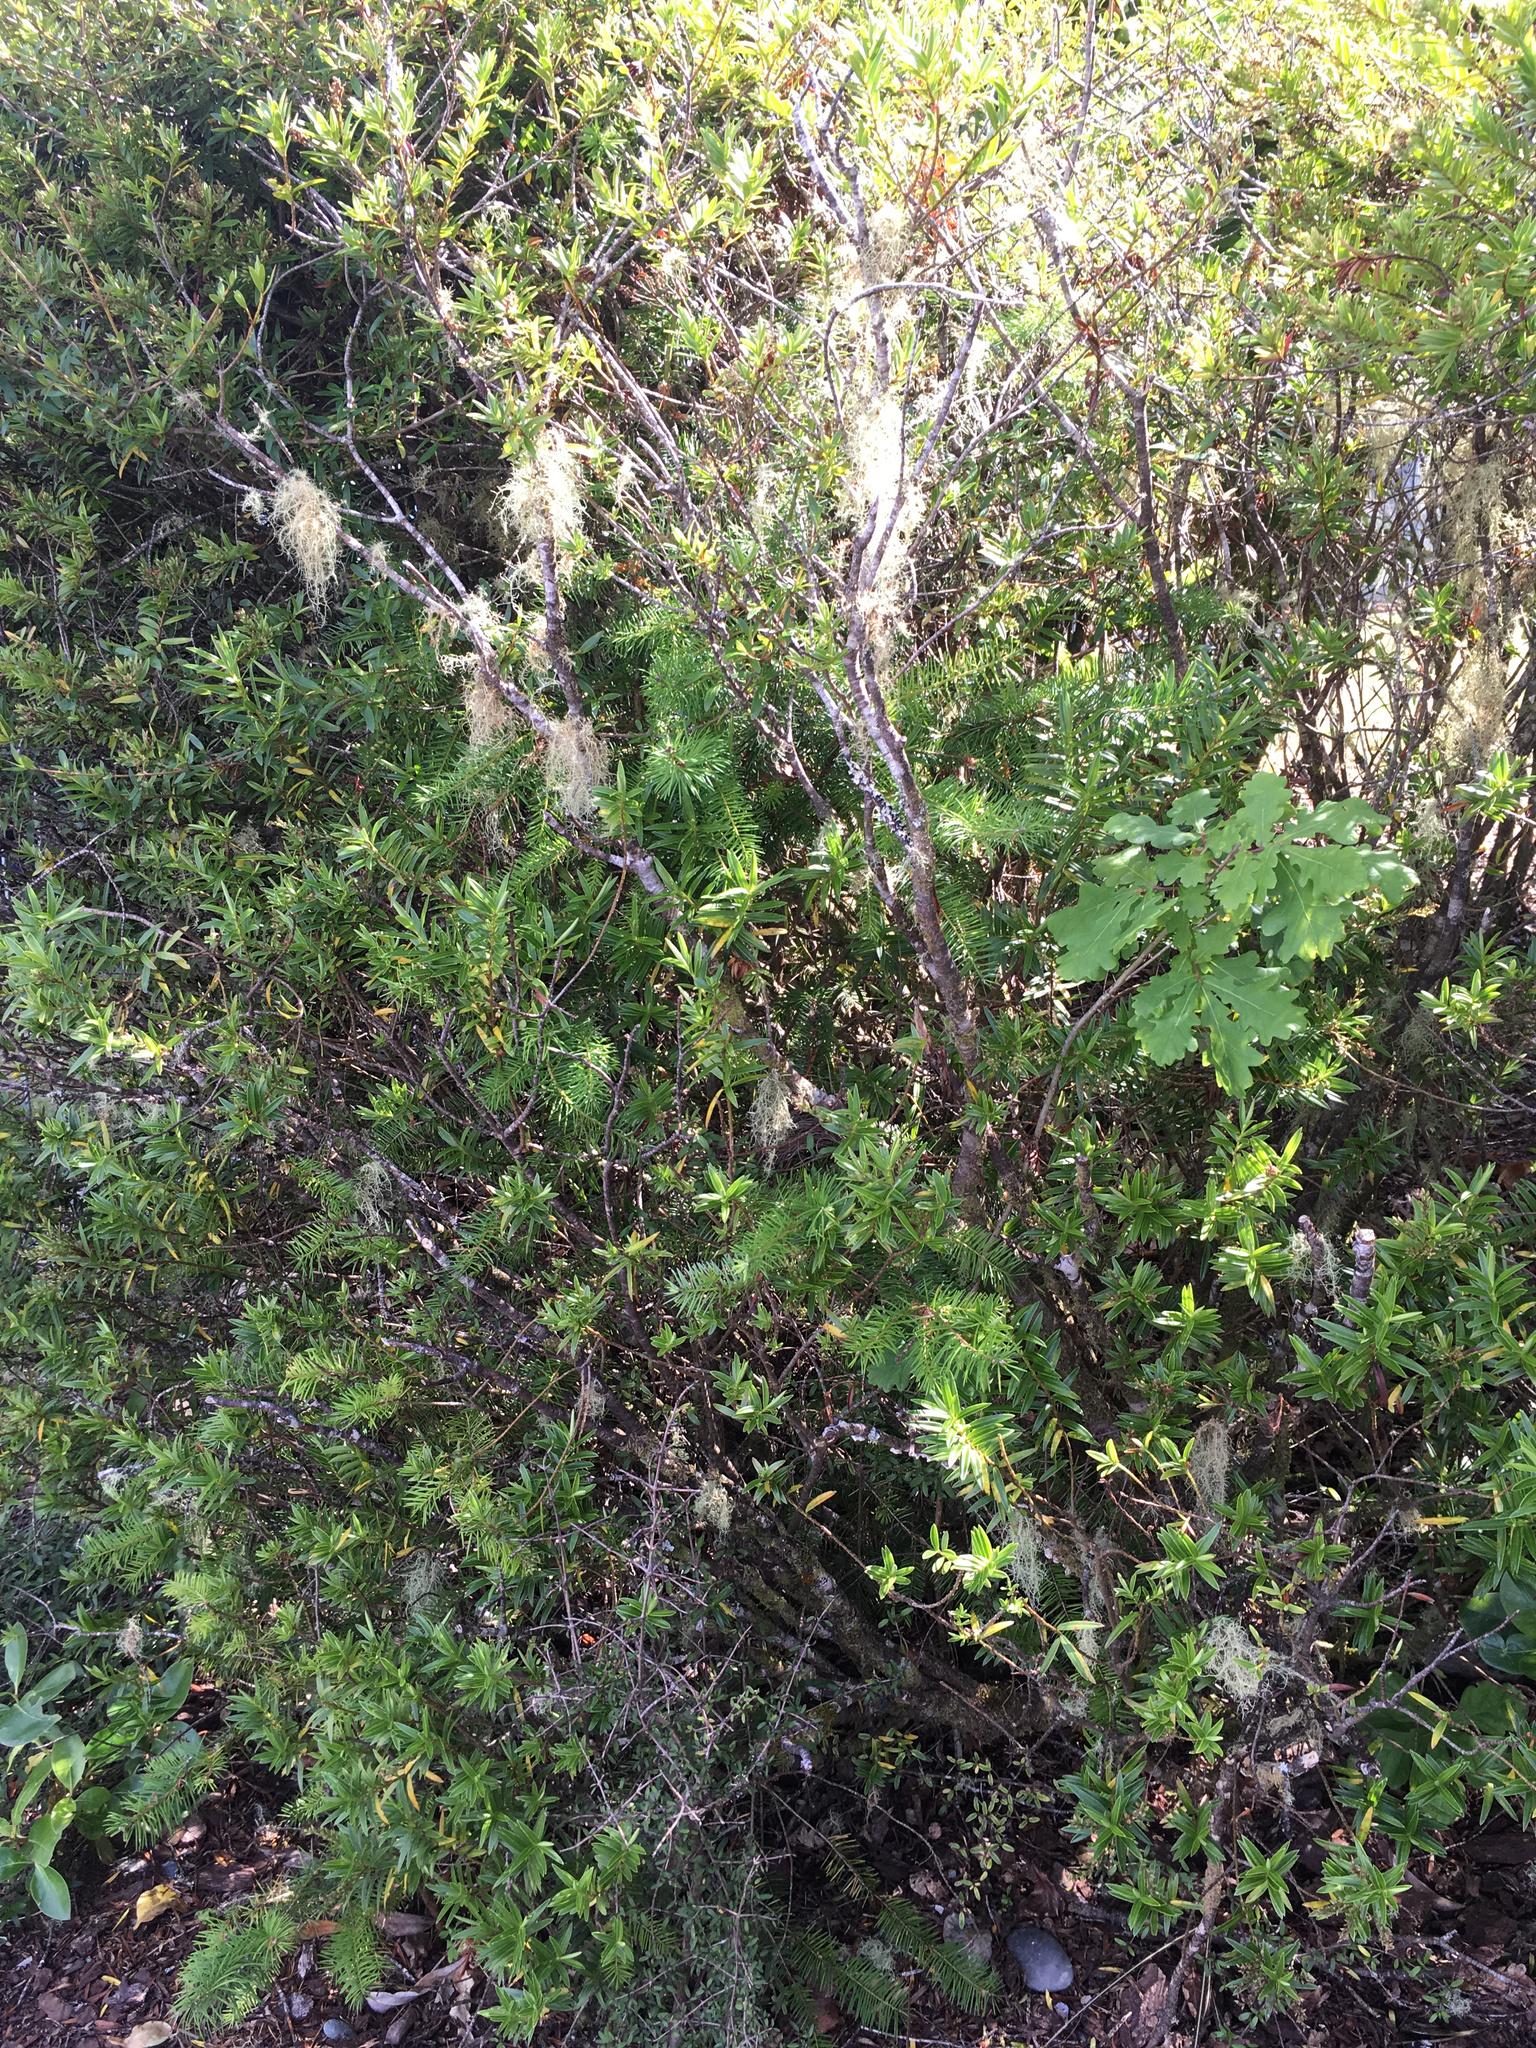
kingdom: Plantae
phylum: Tracheophyta
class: Pinopsida
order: Pinales
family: Pinaceae
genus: Pseudotsuga
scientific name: Pseudotsuga menziesii
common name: Douglas fir
